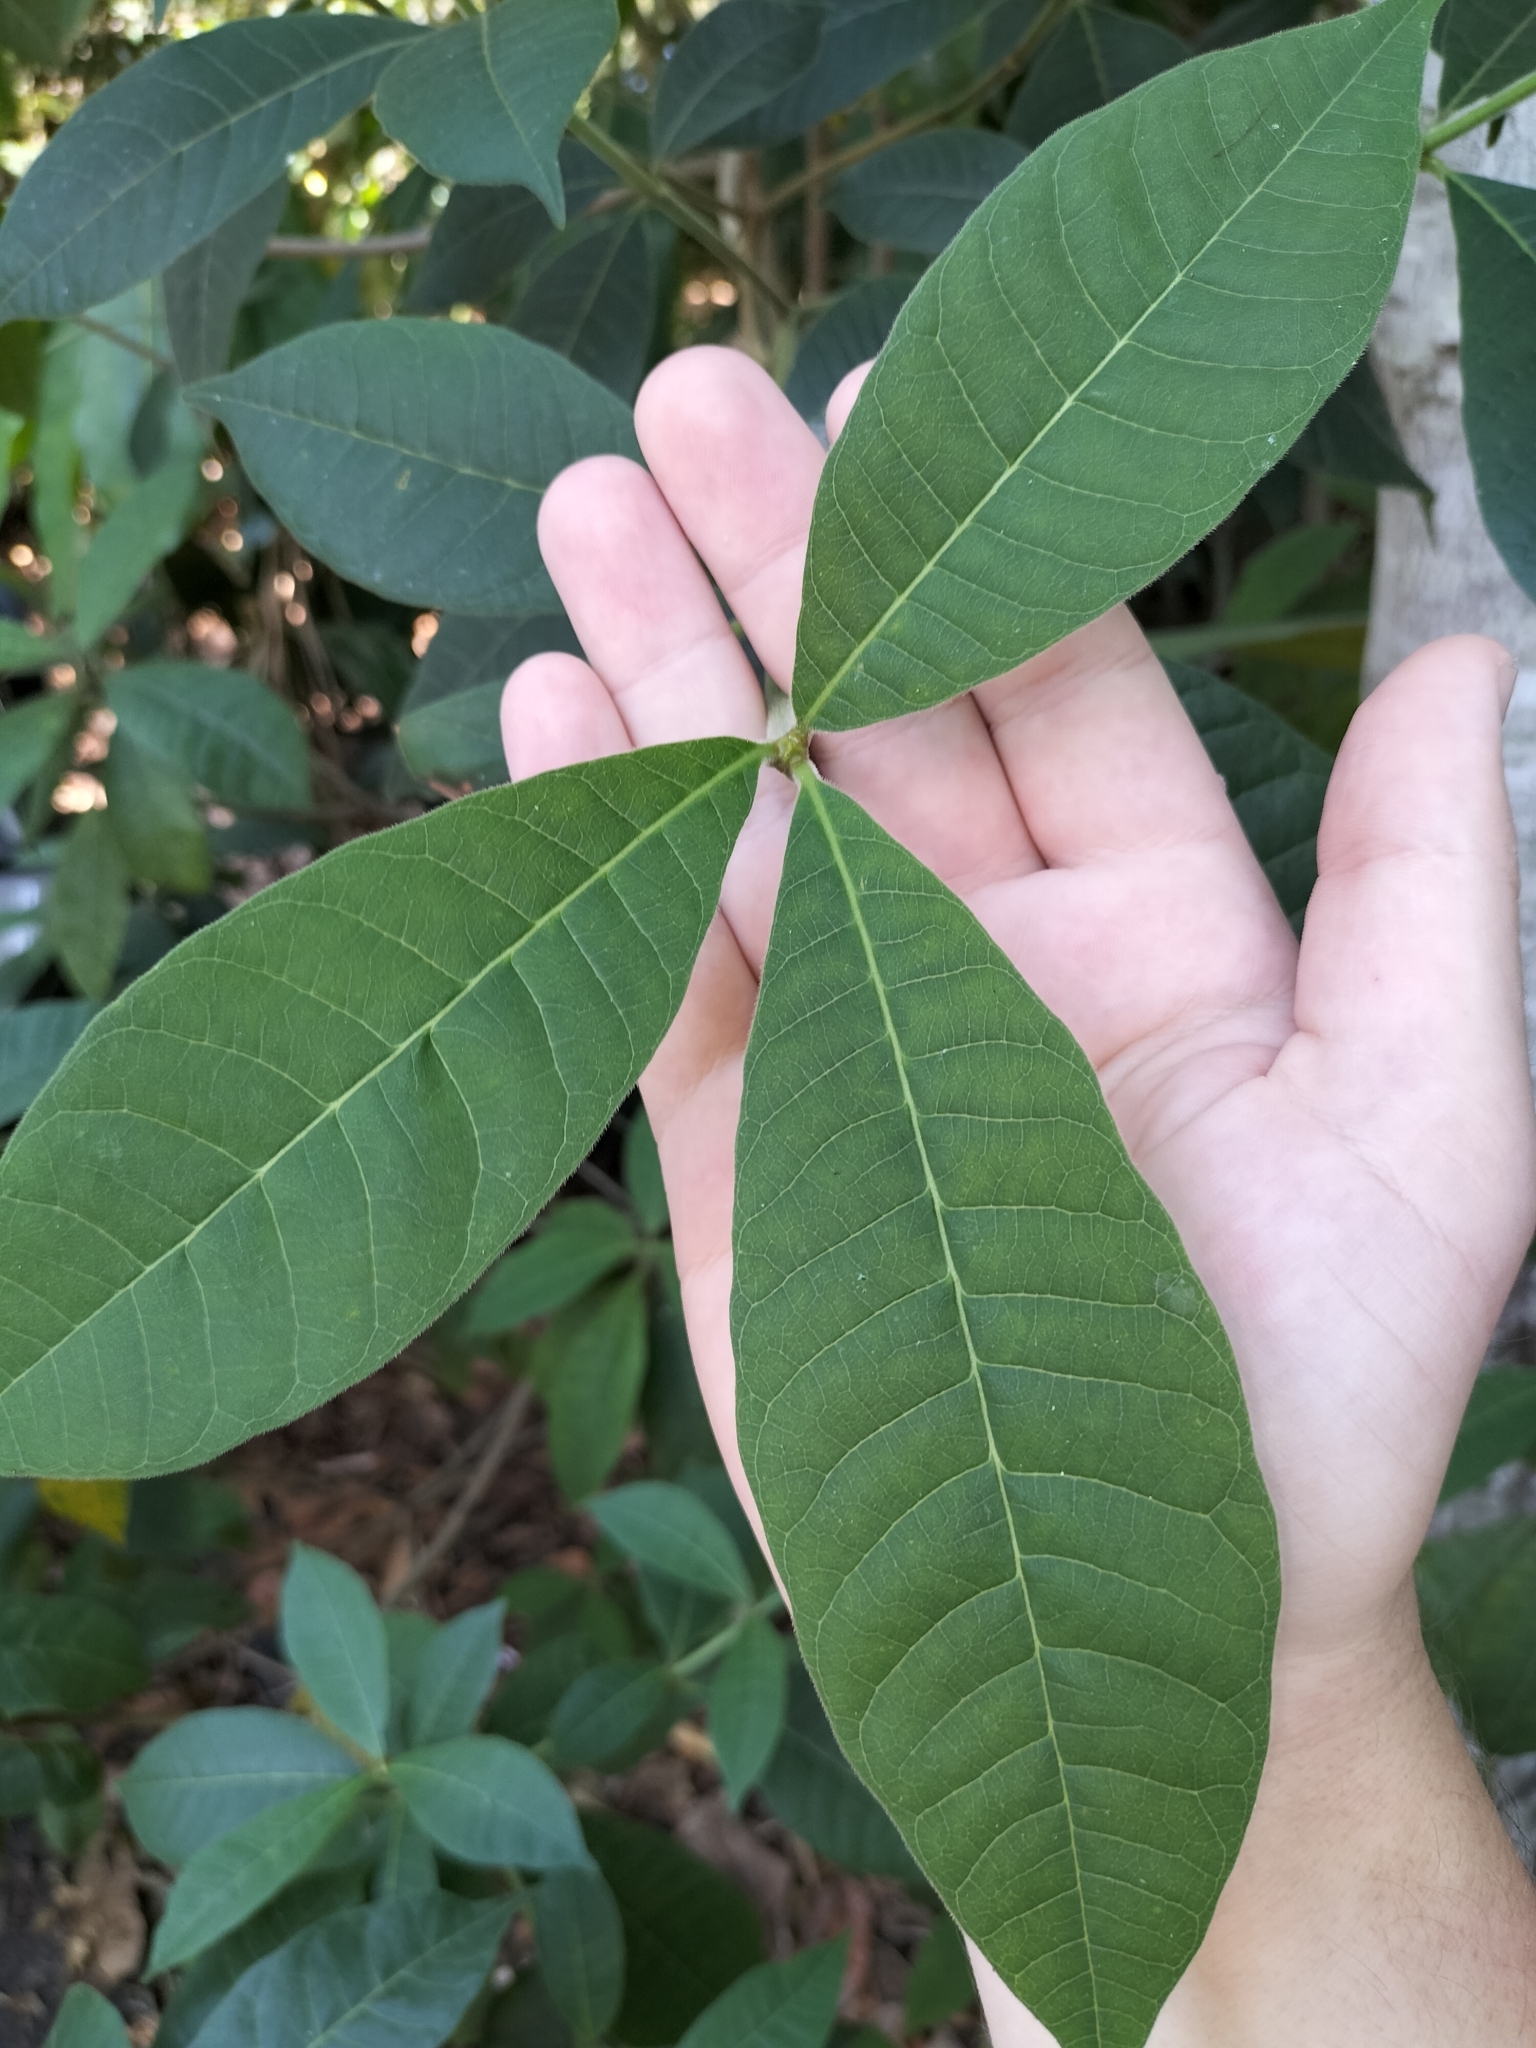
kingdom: Plantae
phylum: Tracheophyta
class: Magnoliopsida
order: Gentianales
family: Apocynaceae
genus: Alstonia
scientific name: Alstonia muelleriana
